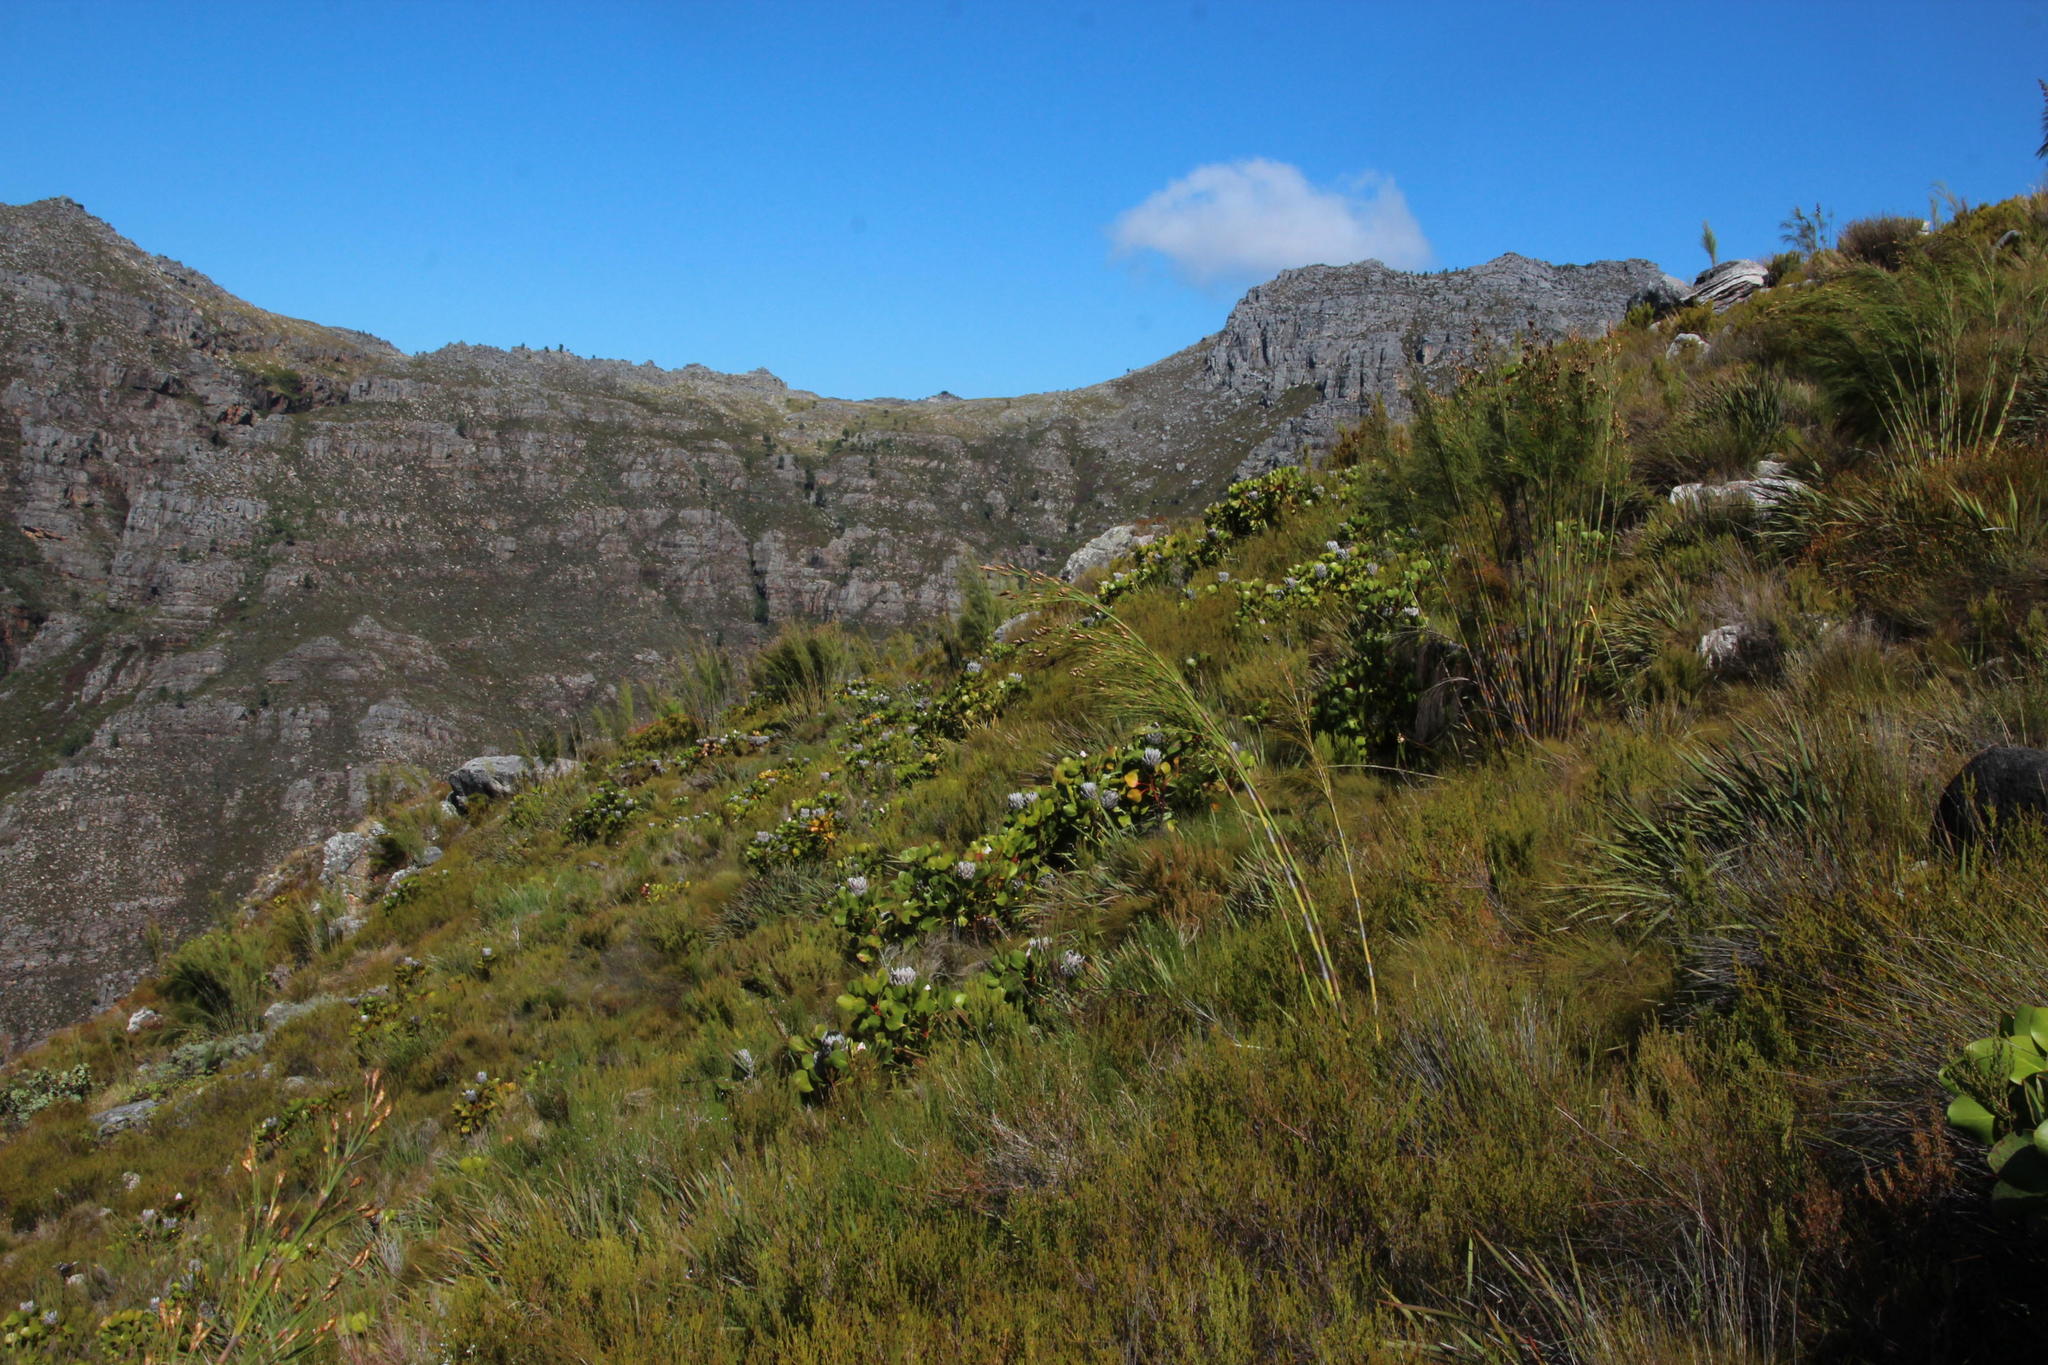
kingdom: Plantae
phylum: Tracheophyta
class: Magnoliopsida
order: Proteales
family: Proteaceae
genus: Protea
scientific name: Protea cynaroides
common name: King protea
